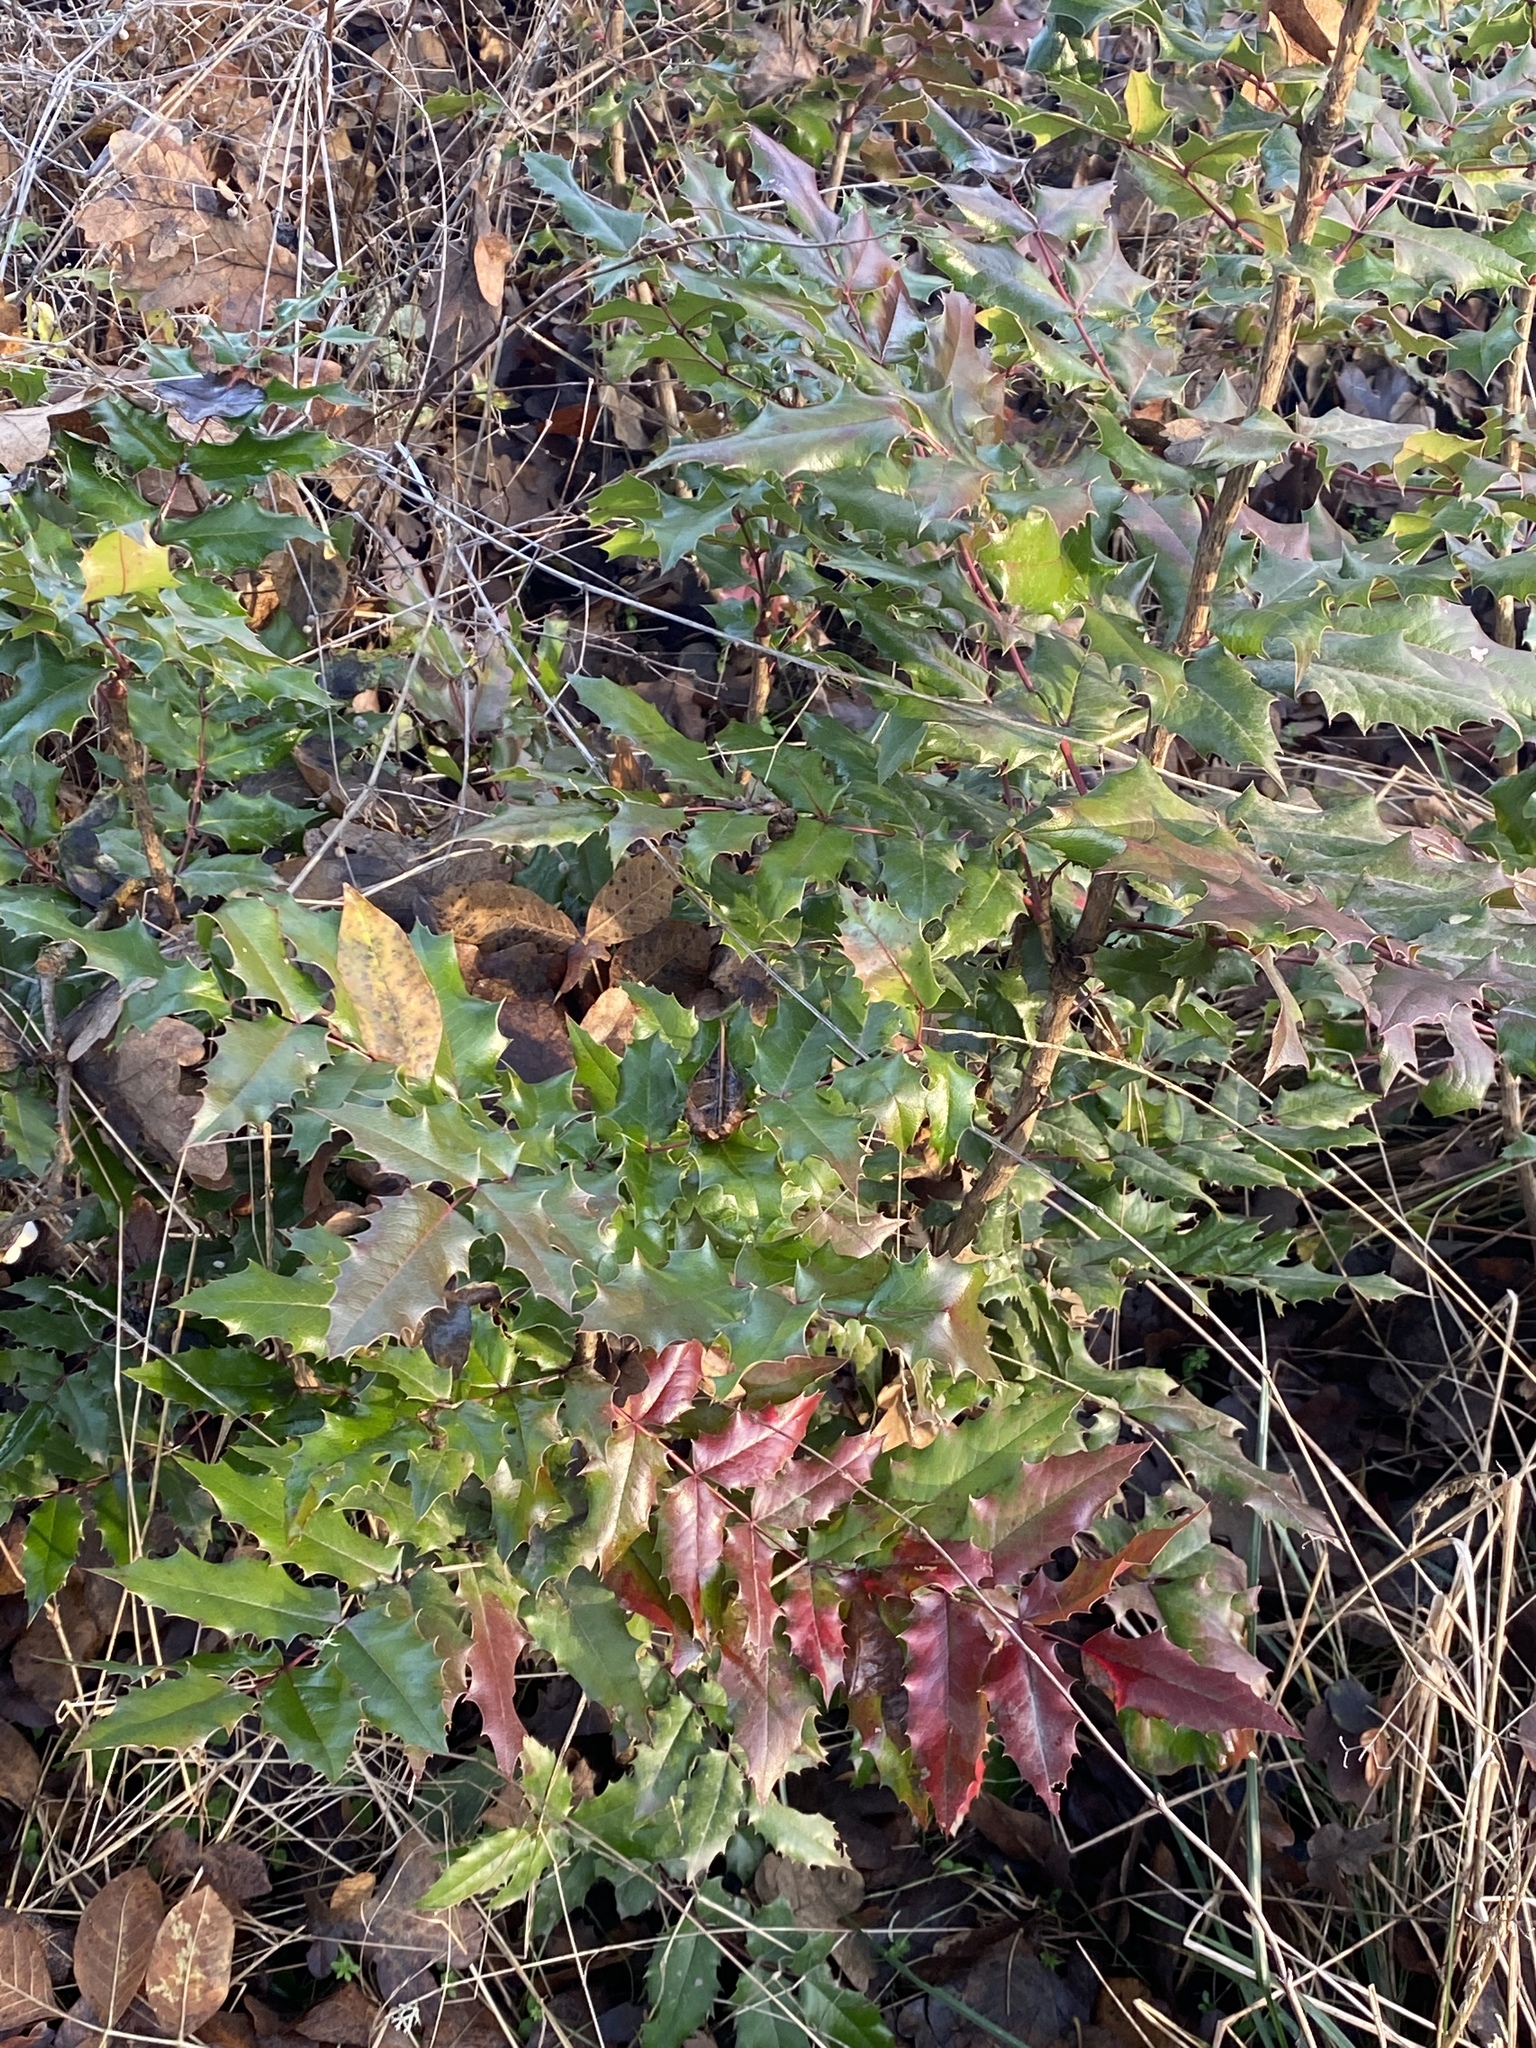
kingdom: Plantae
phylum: Tracheophyta
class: Magnoliopsida
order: Ranunculales
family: Berberidaceae
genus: Mahonia
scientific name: Mahonia aquifolium
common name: Oregon-grape
